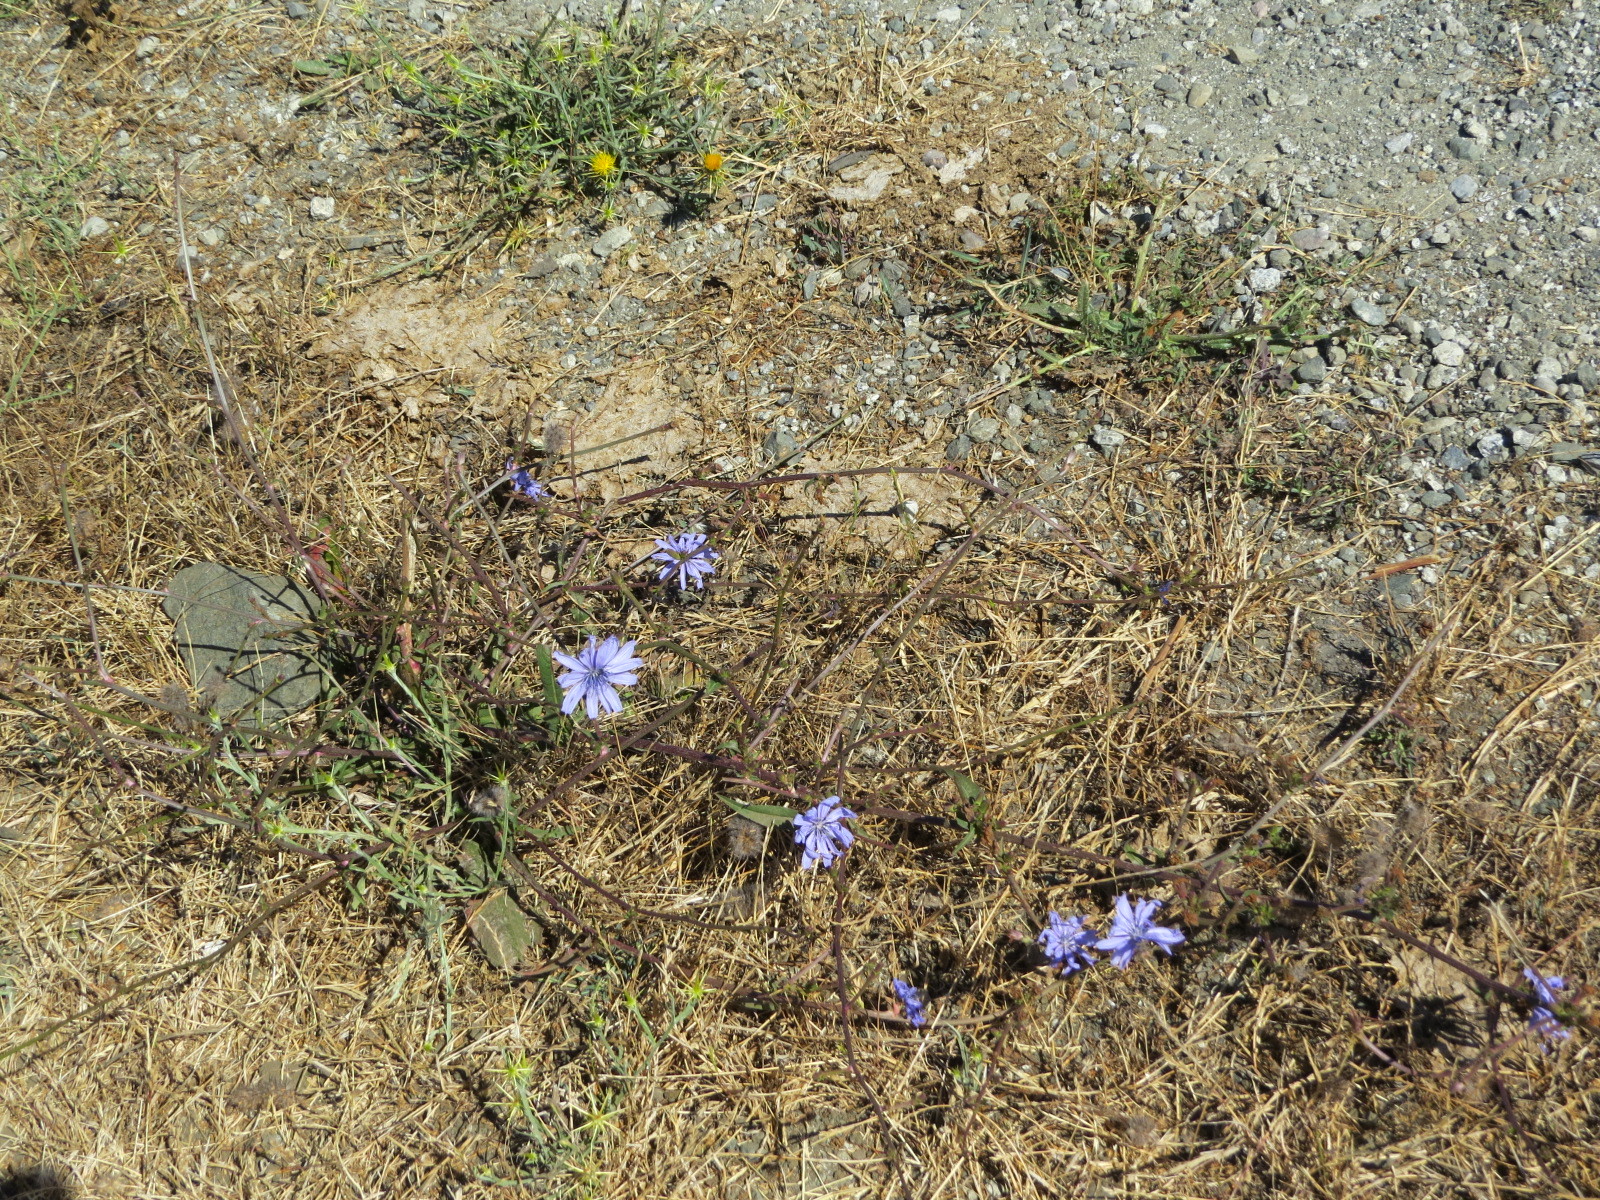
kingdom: Plantae
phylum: Tracheophyta
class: Magnoliopsida
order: Asterales
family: Asteraceae
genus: Cichorium
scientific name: Cichorium intybus
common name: Chicory
